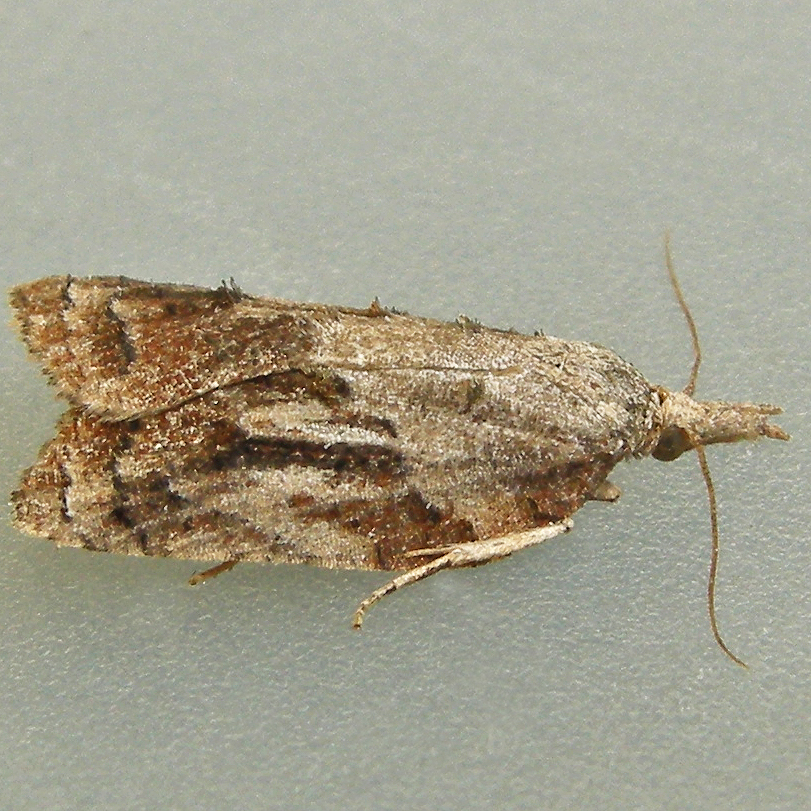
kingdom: Animalia
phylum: Arthropoda
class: Insecta
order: Lepidoptera
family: Tortricidae
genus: Platynota
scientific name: Platynota idaeusalis
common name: Tufted apple bud moth
